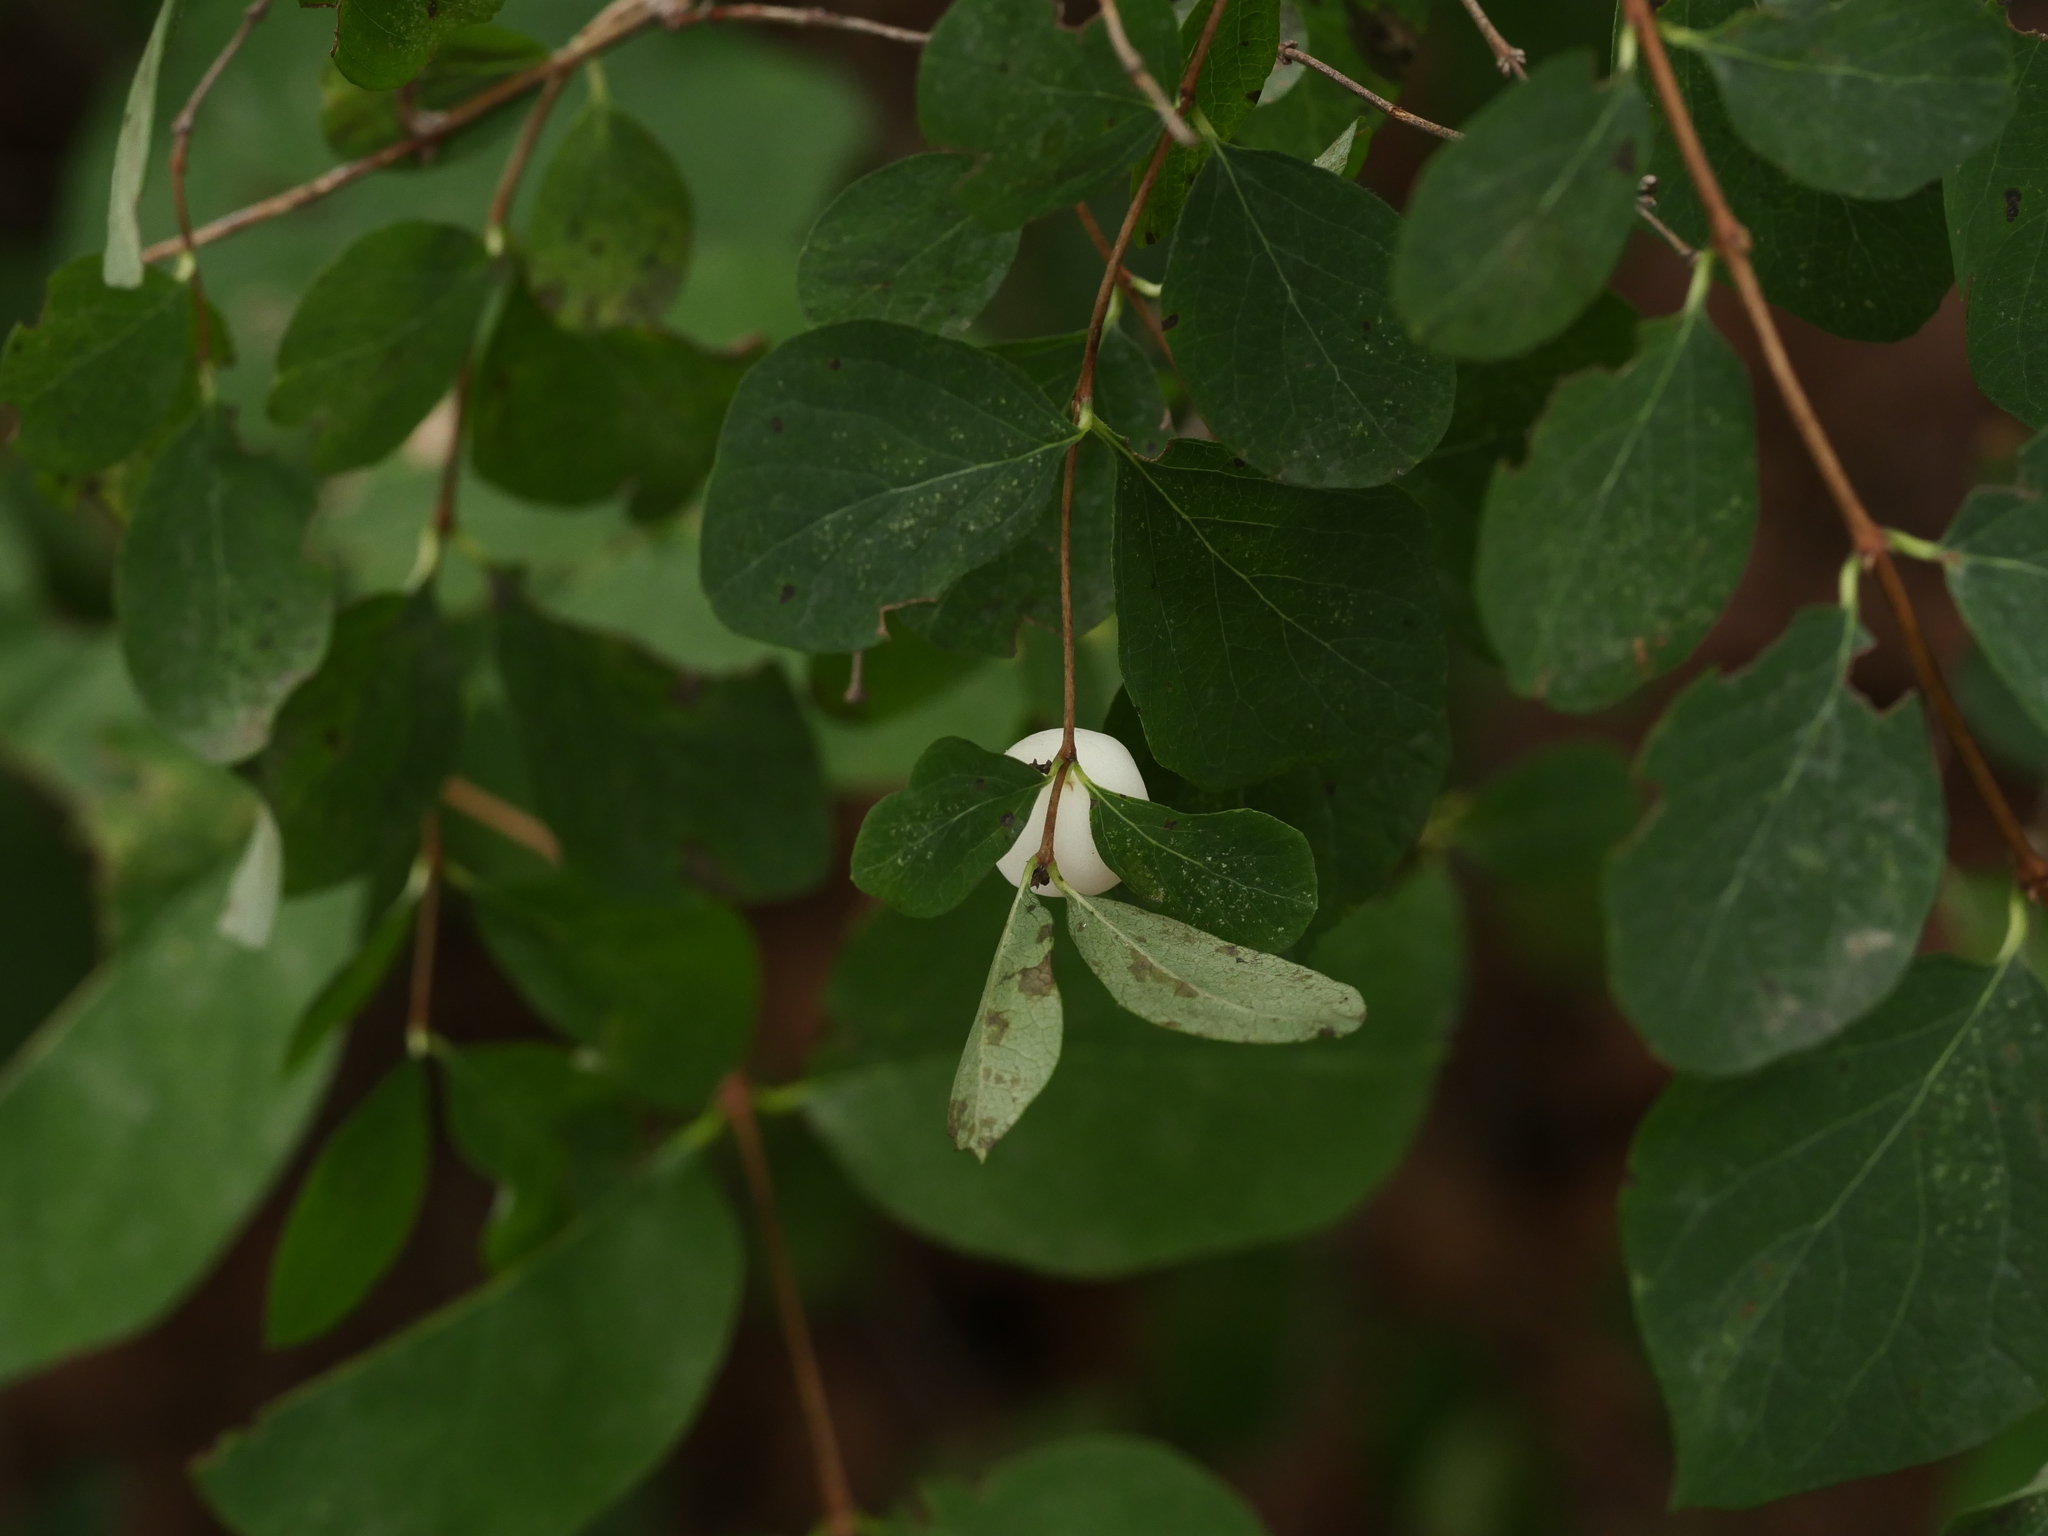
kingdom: Plantae
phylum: Tracheophyta
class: Magnoliopsida
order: Dipsacales
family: Caprifoliaceae
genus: Symphoricarpos
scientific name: Symphoricarpos albus
